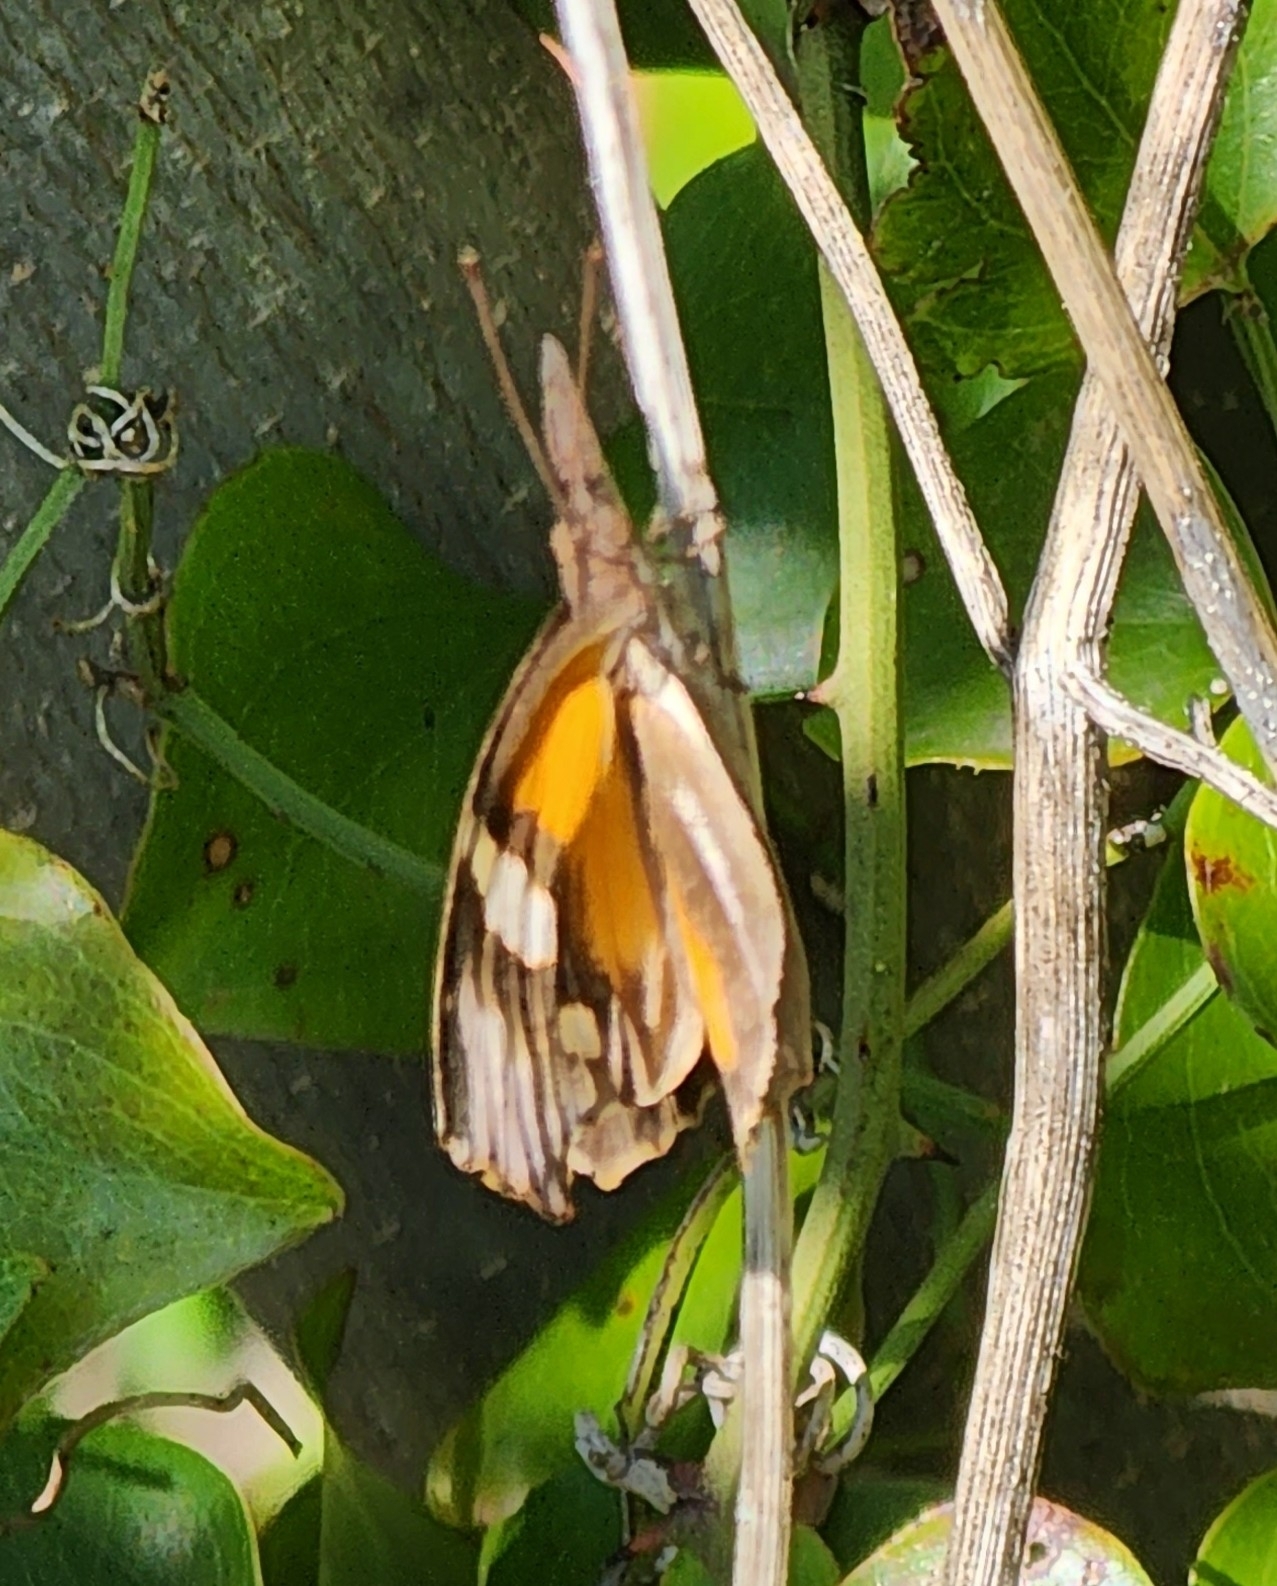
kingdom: Animalia
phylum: Arthropoda
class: Insecta
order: Lepidoptera
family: Nymphalidae
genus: Libytheana
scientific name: Libytheana carinenta
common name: American snout
